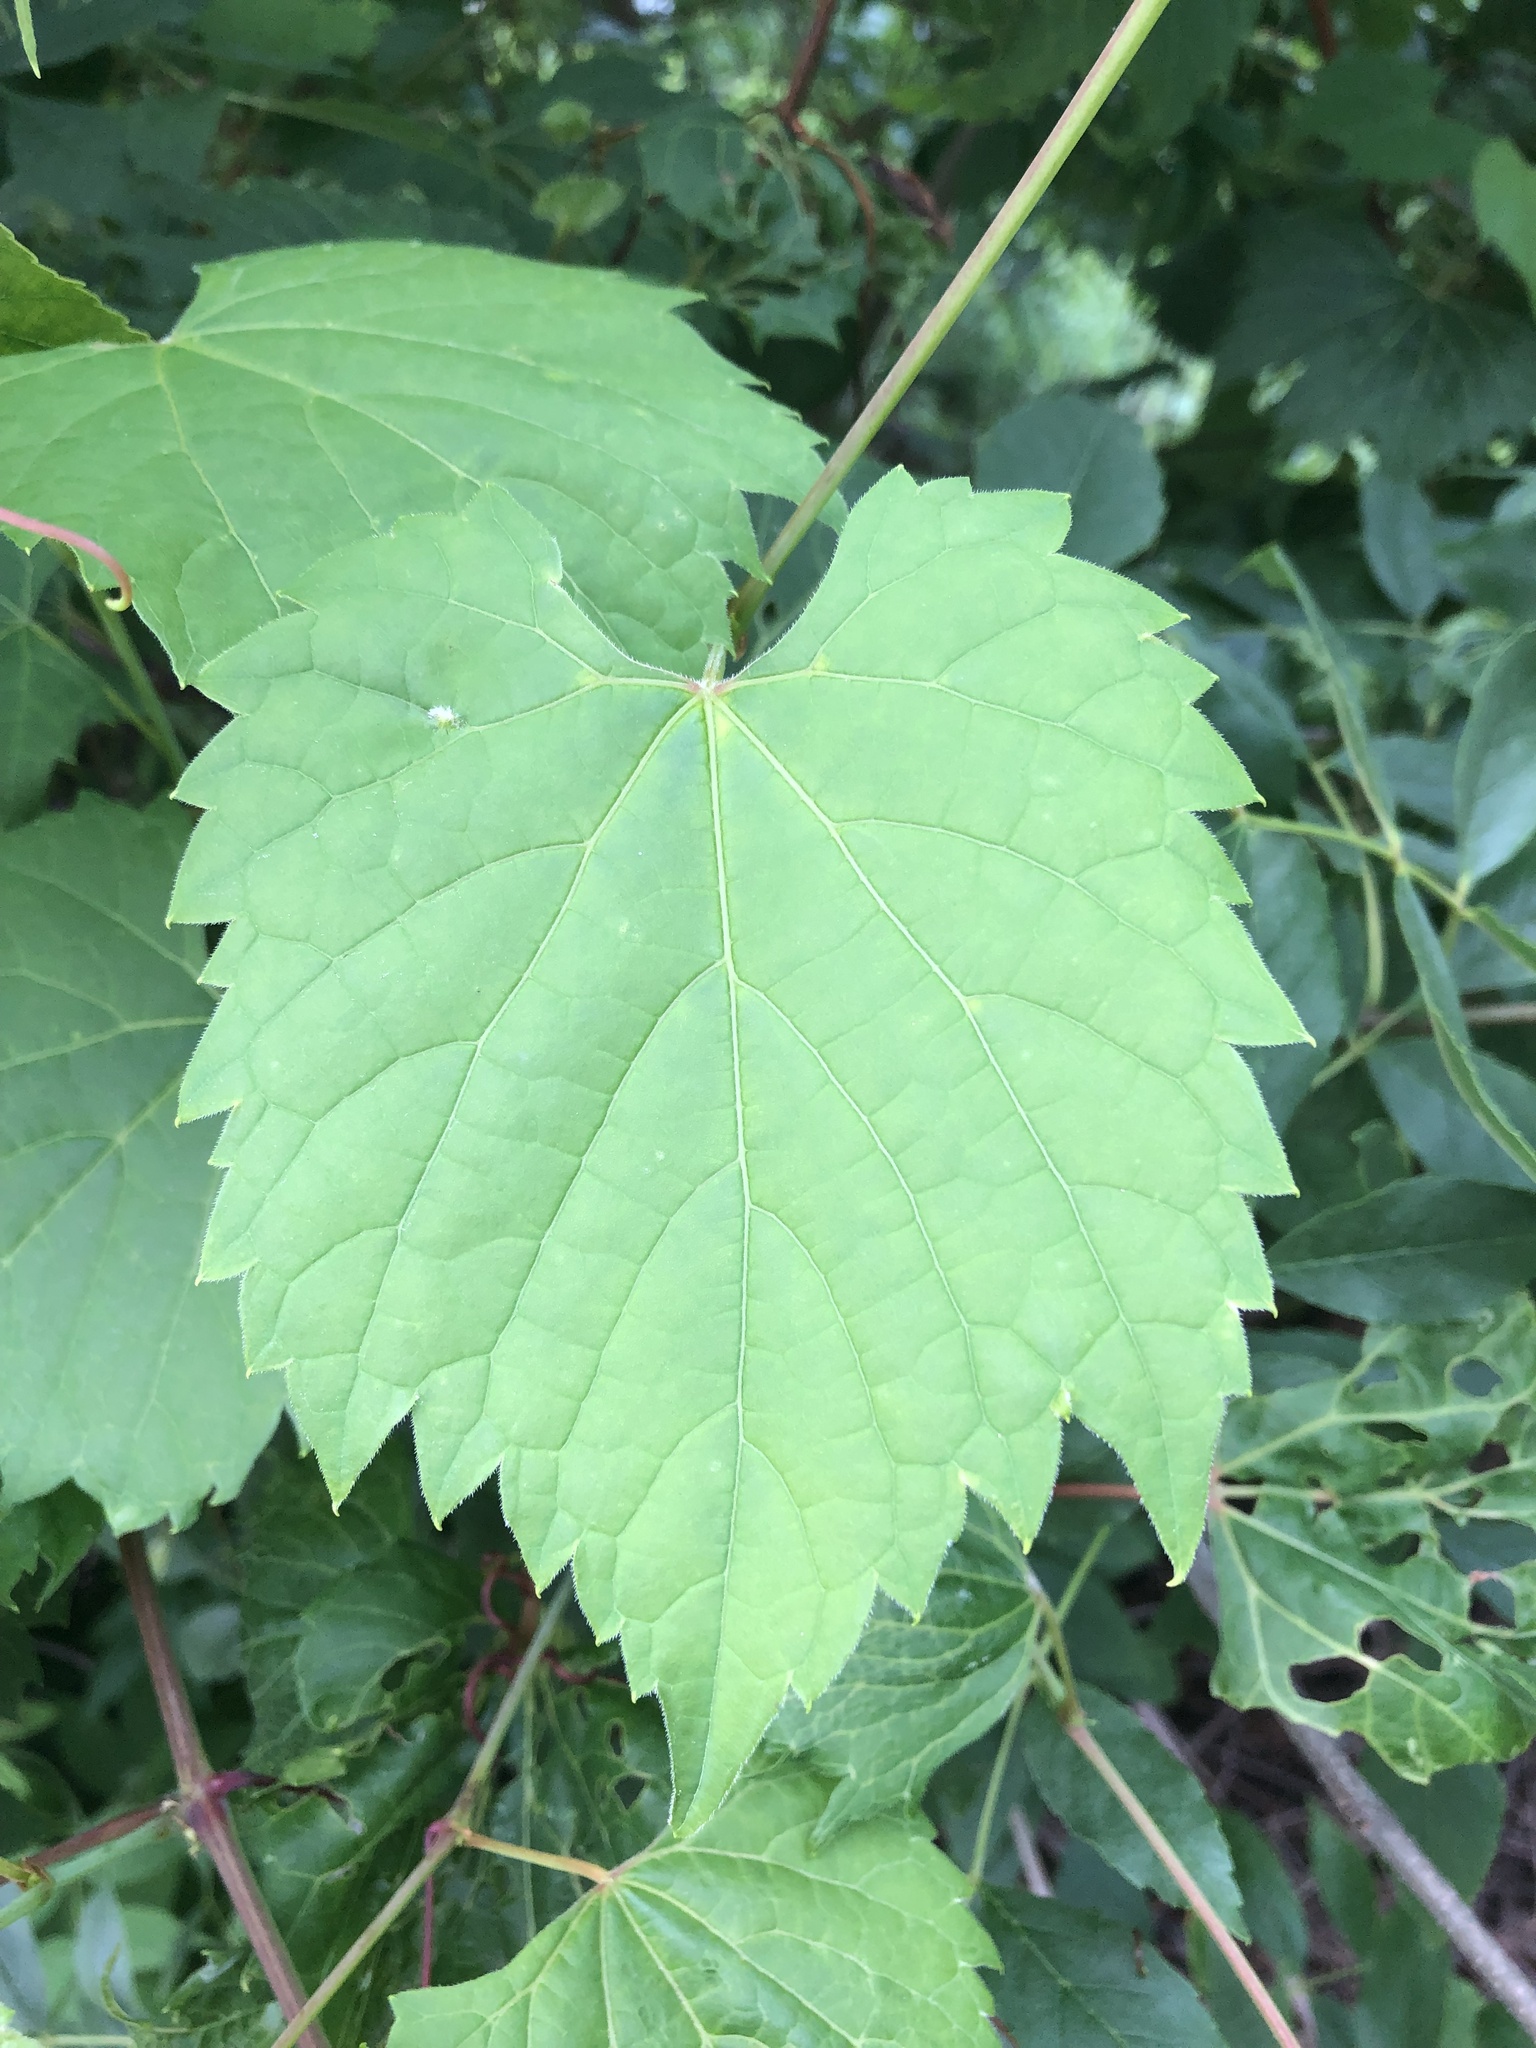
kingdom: Plantae
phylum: Tracheophyta
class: Magnoliopsida
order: Vitales
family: Vitaceae
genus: Vitis
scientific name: Vitis riparia
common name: Frost grape
